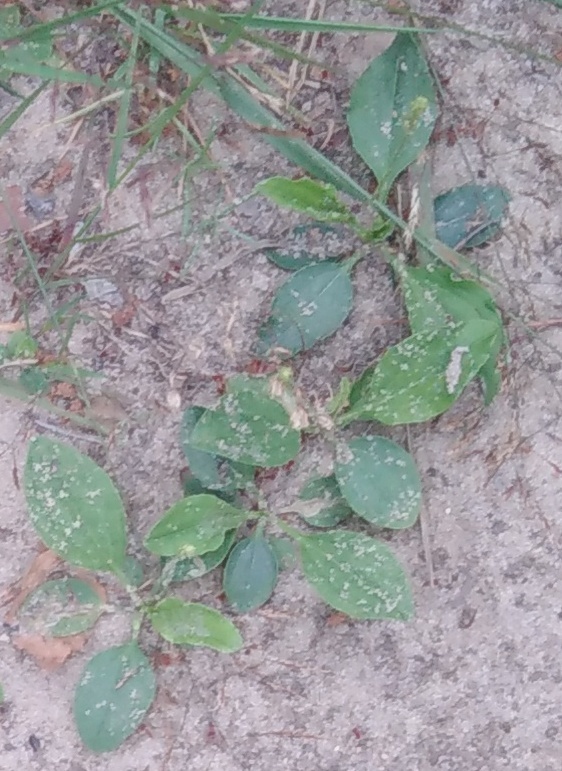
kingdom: Plantae
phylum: Tracheophyta
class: Magnoliopsida
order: Lamiales
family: Plantaginaceae
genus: Plantago
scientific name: Plantago major
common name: Common plantain
